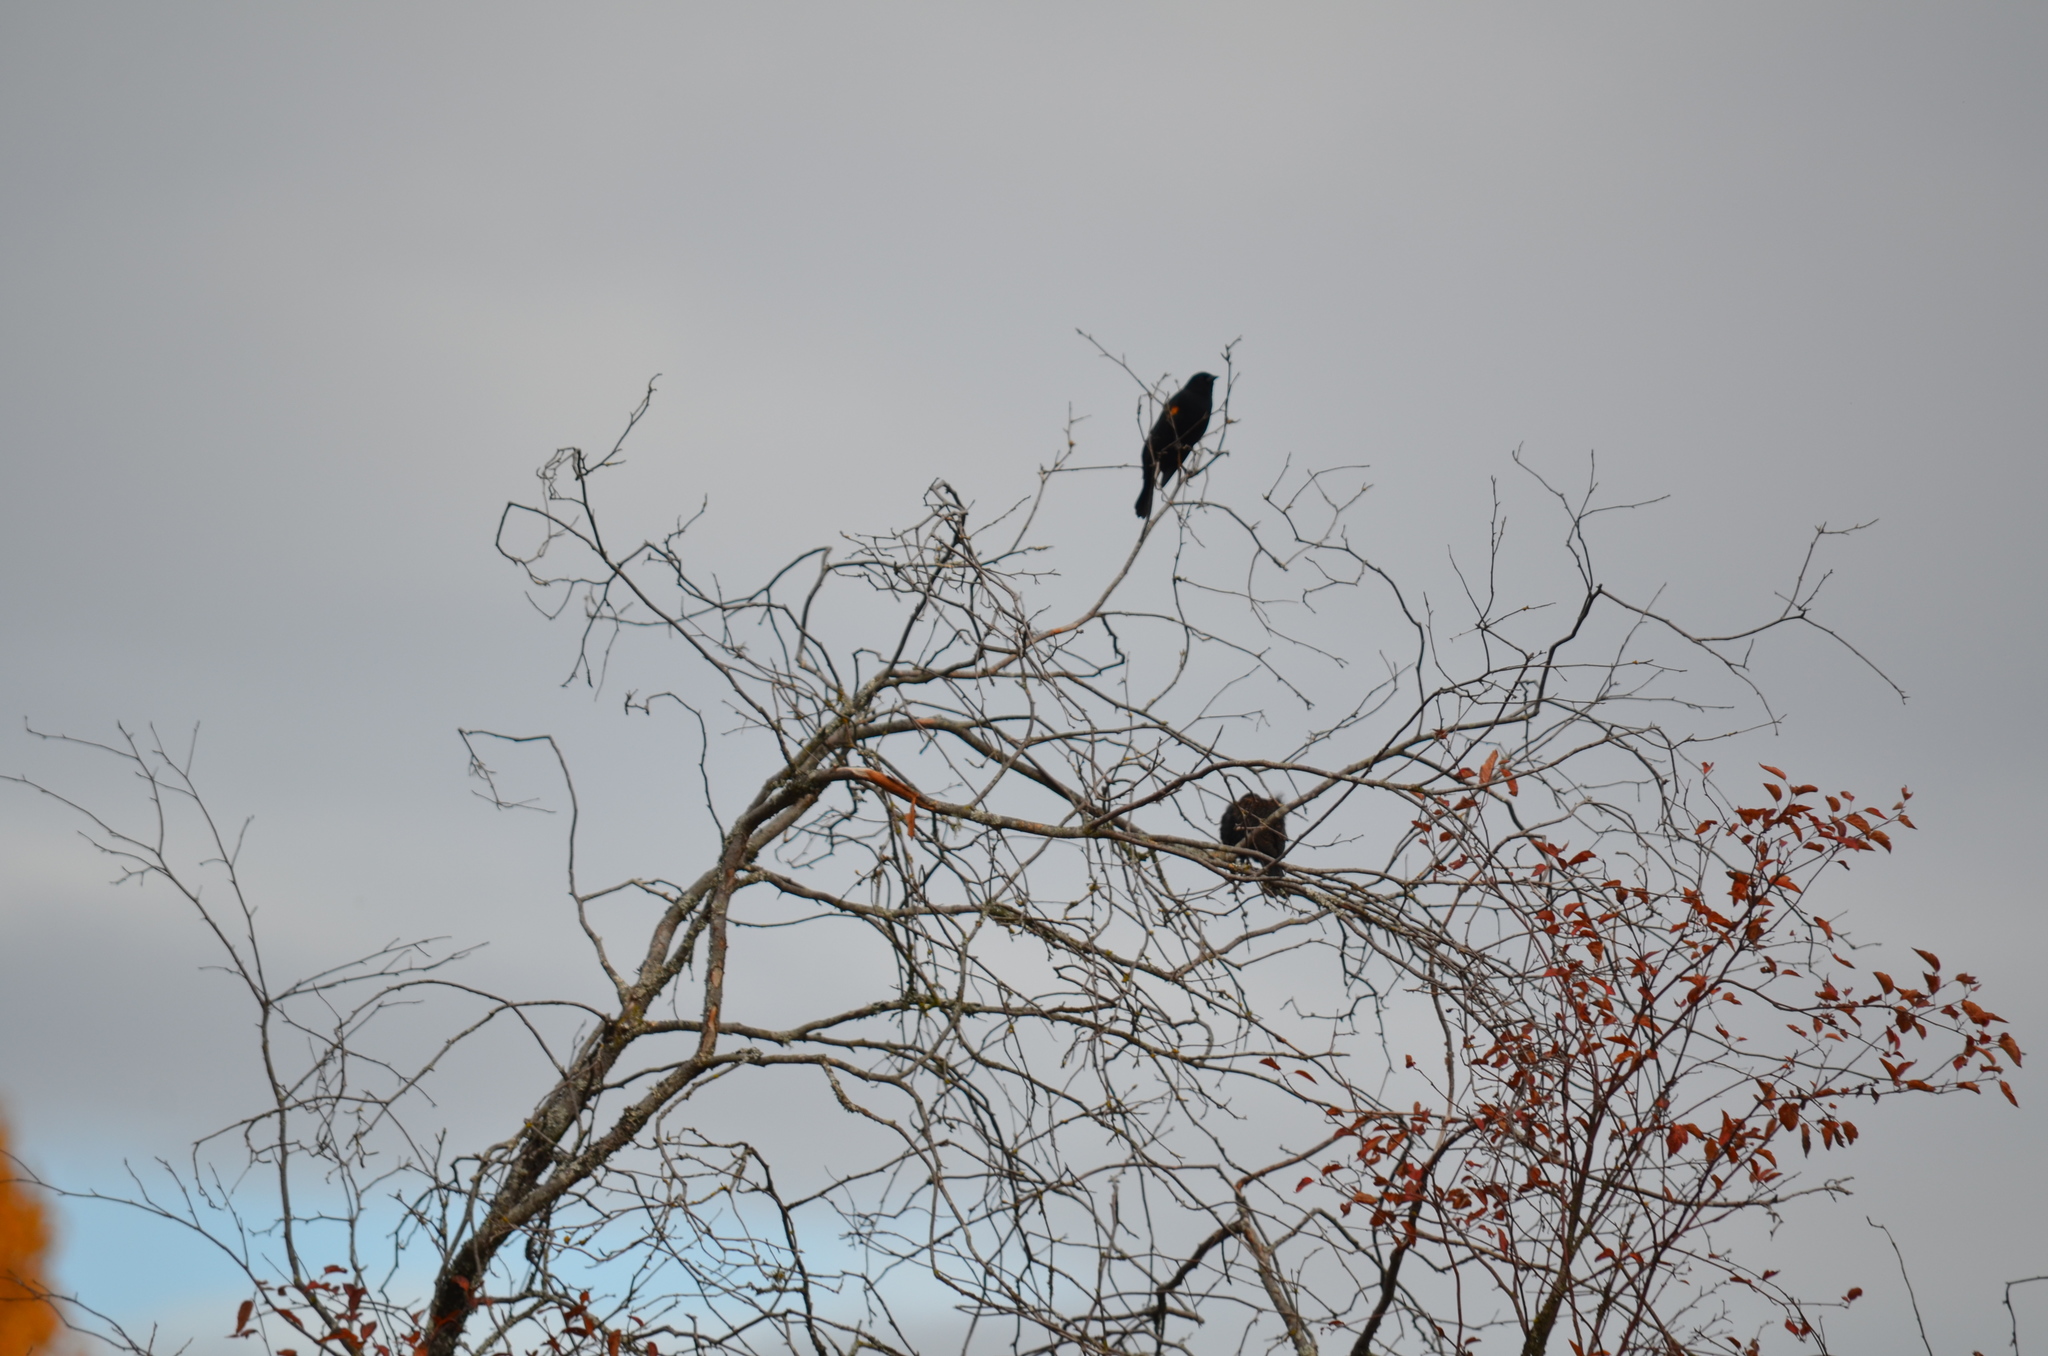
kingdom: Animalia
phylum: Chordata
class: Aves
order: Passeriformes
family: Icteridae
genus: Agelaius
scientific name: Agelaius phoeniceus
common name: Red-winged blackbird
